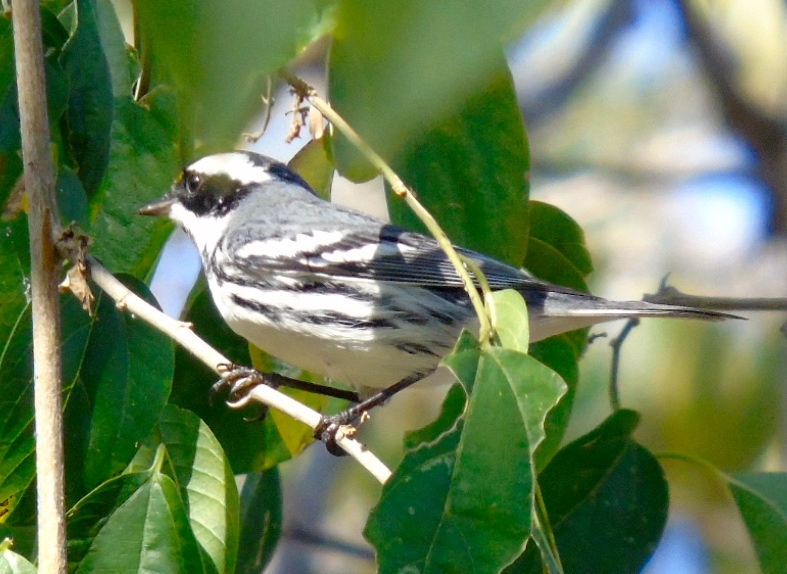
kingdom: Animalia
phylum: Chordata
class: Aves
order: Passeriformes
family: Parulidae
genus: Setophaga
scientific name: Setophaga nigrescens
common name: Black-throated gray warbler
